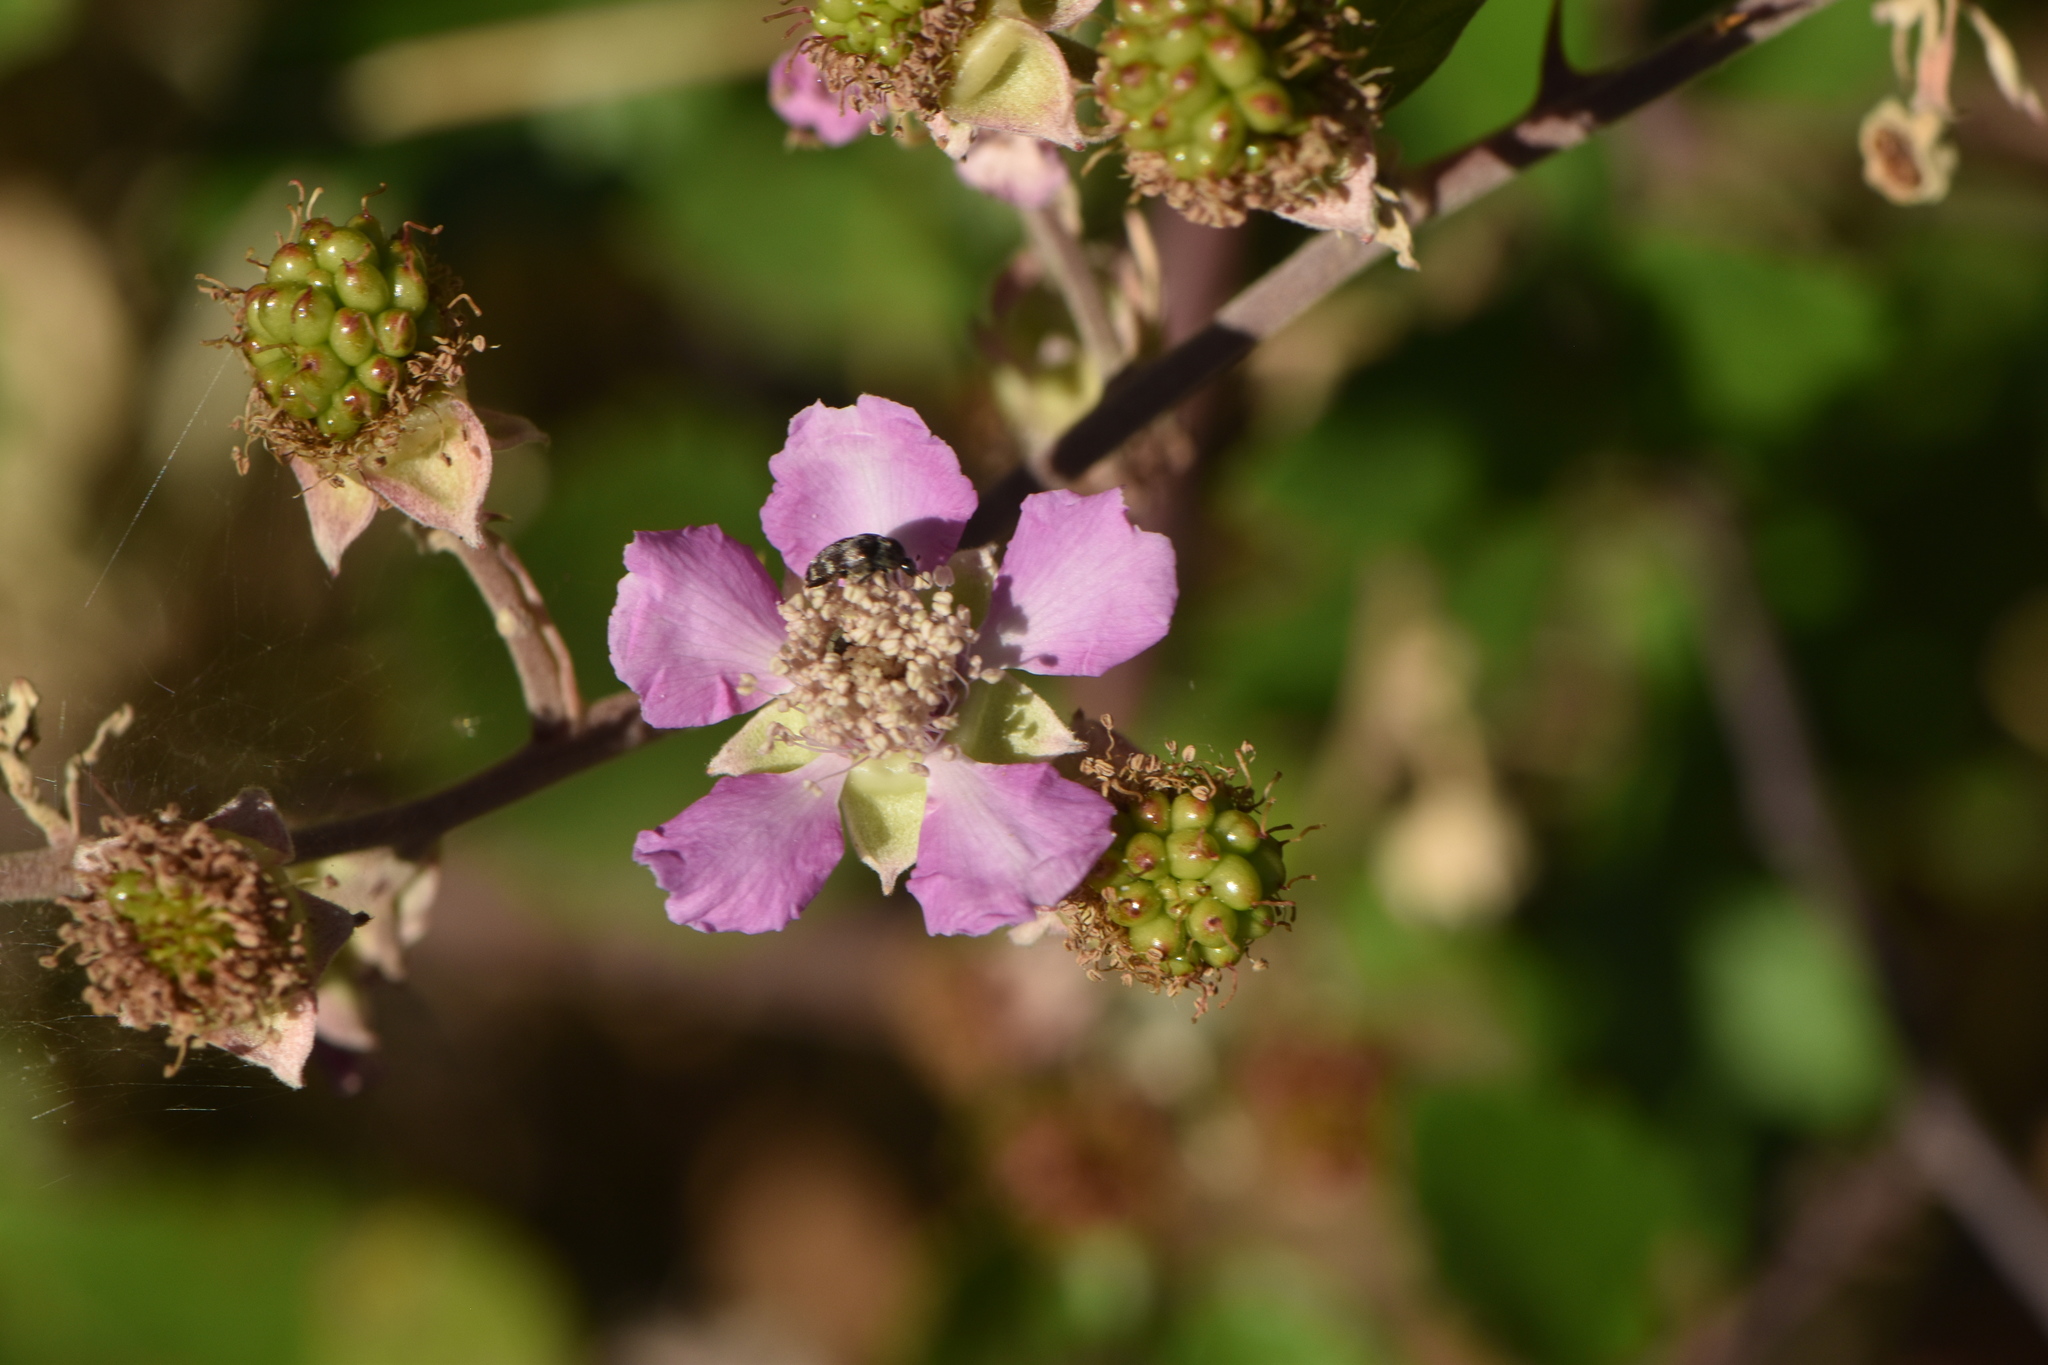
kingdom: Fungi
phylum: Basidiomycota
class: Pucciniomycetes
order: Pucciniales
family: Phragmidiaceae
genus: Phragmidium
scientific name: Phragmidium violaceum
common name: Violet bramble rust
